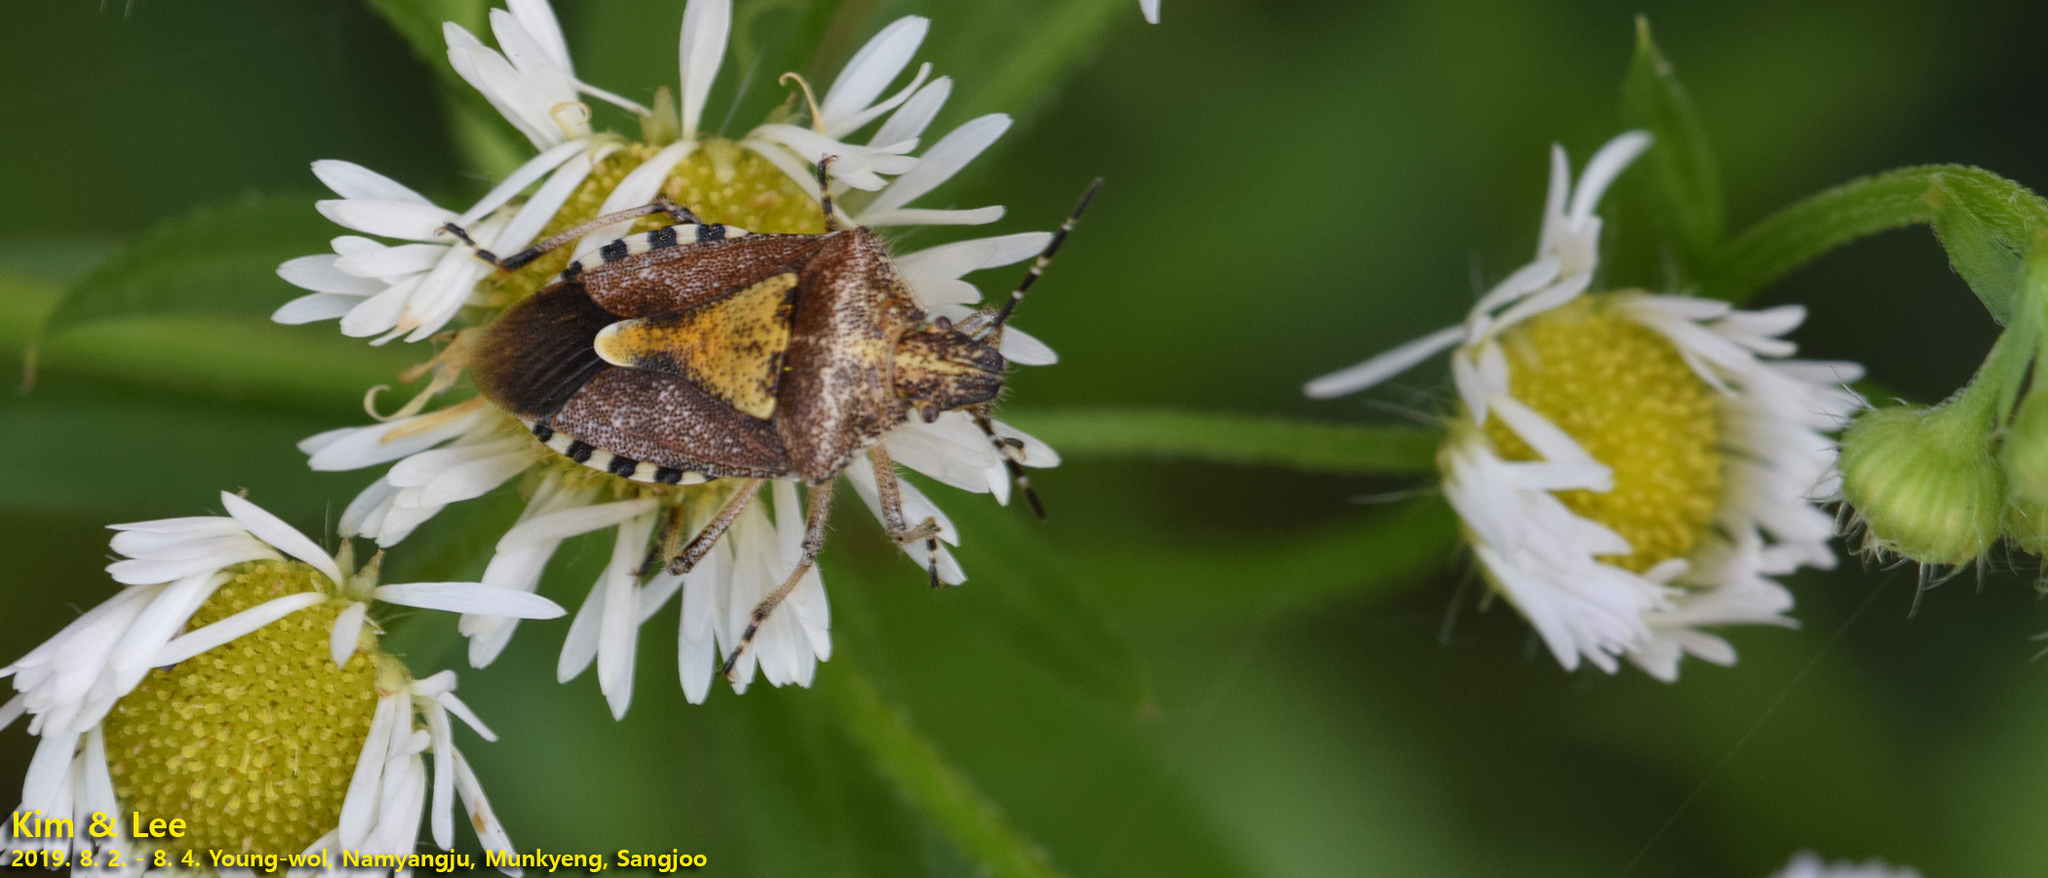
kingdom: Animalia
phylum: Arthropoda
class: Insecta
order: Hemiptera
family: Pentatomidae
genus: Dolycoris
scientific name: Dolycoris baccarum
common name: Sloe bug
